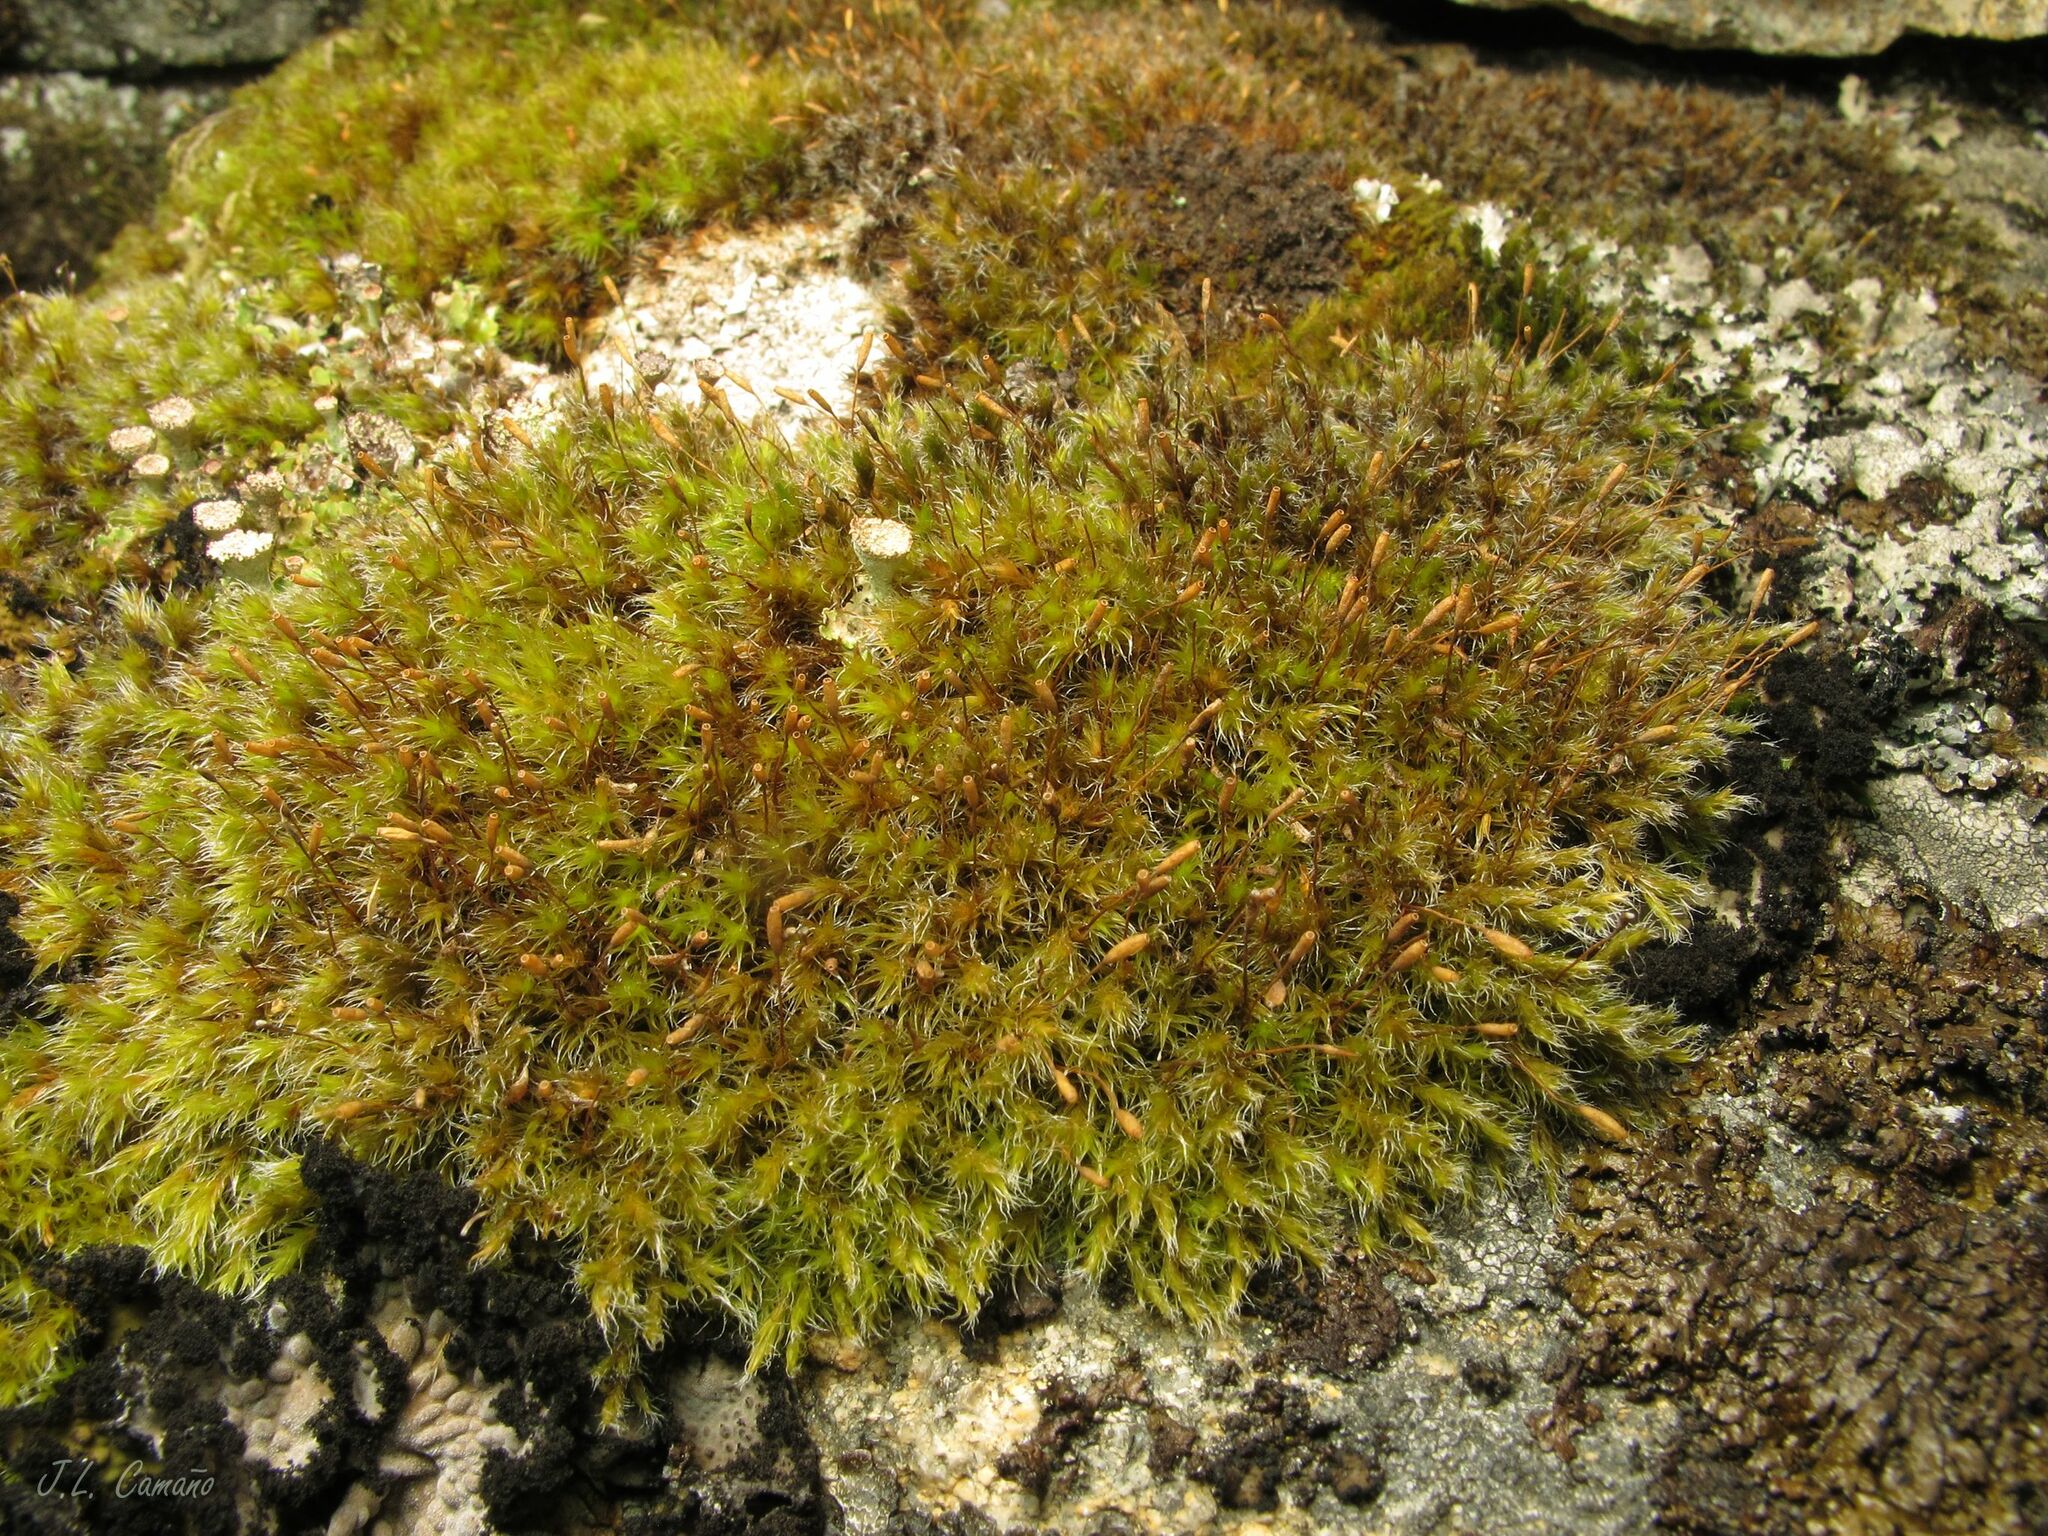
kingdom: Plantae
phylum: Bryophyta
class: Bryopsida
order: Grimmiales
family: Grimmiaceae
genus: Bucklandiella
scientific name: Bucklandiella heterosticha
